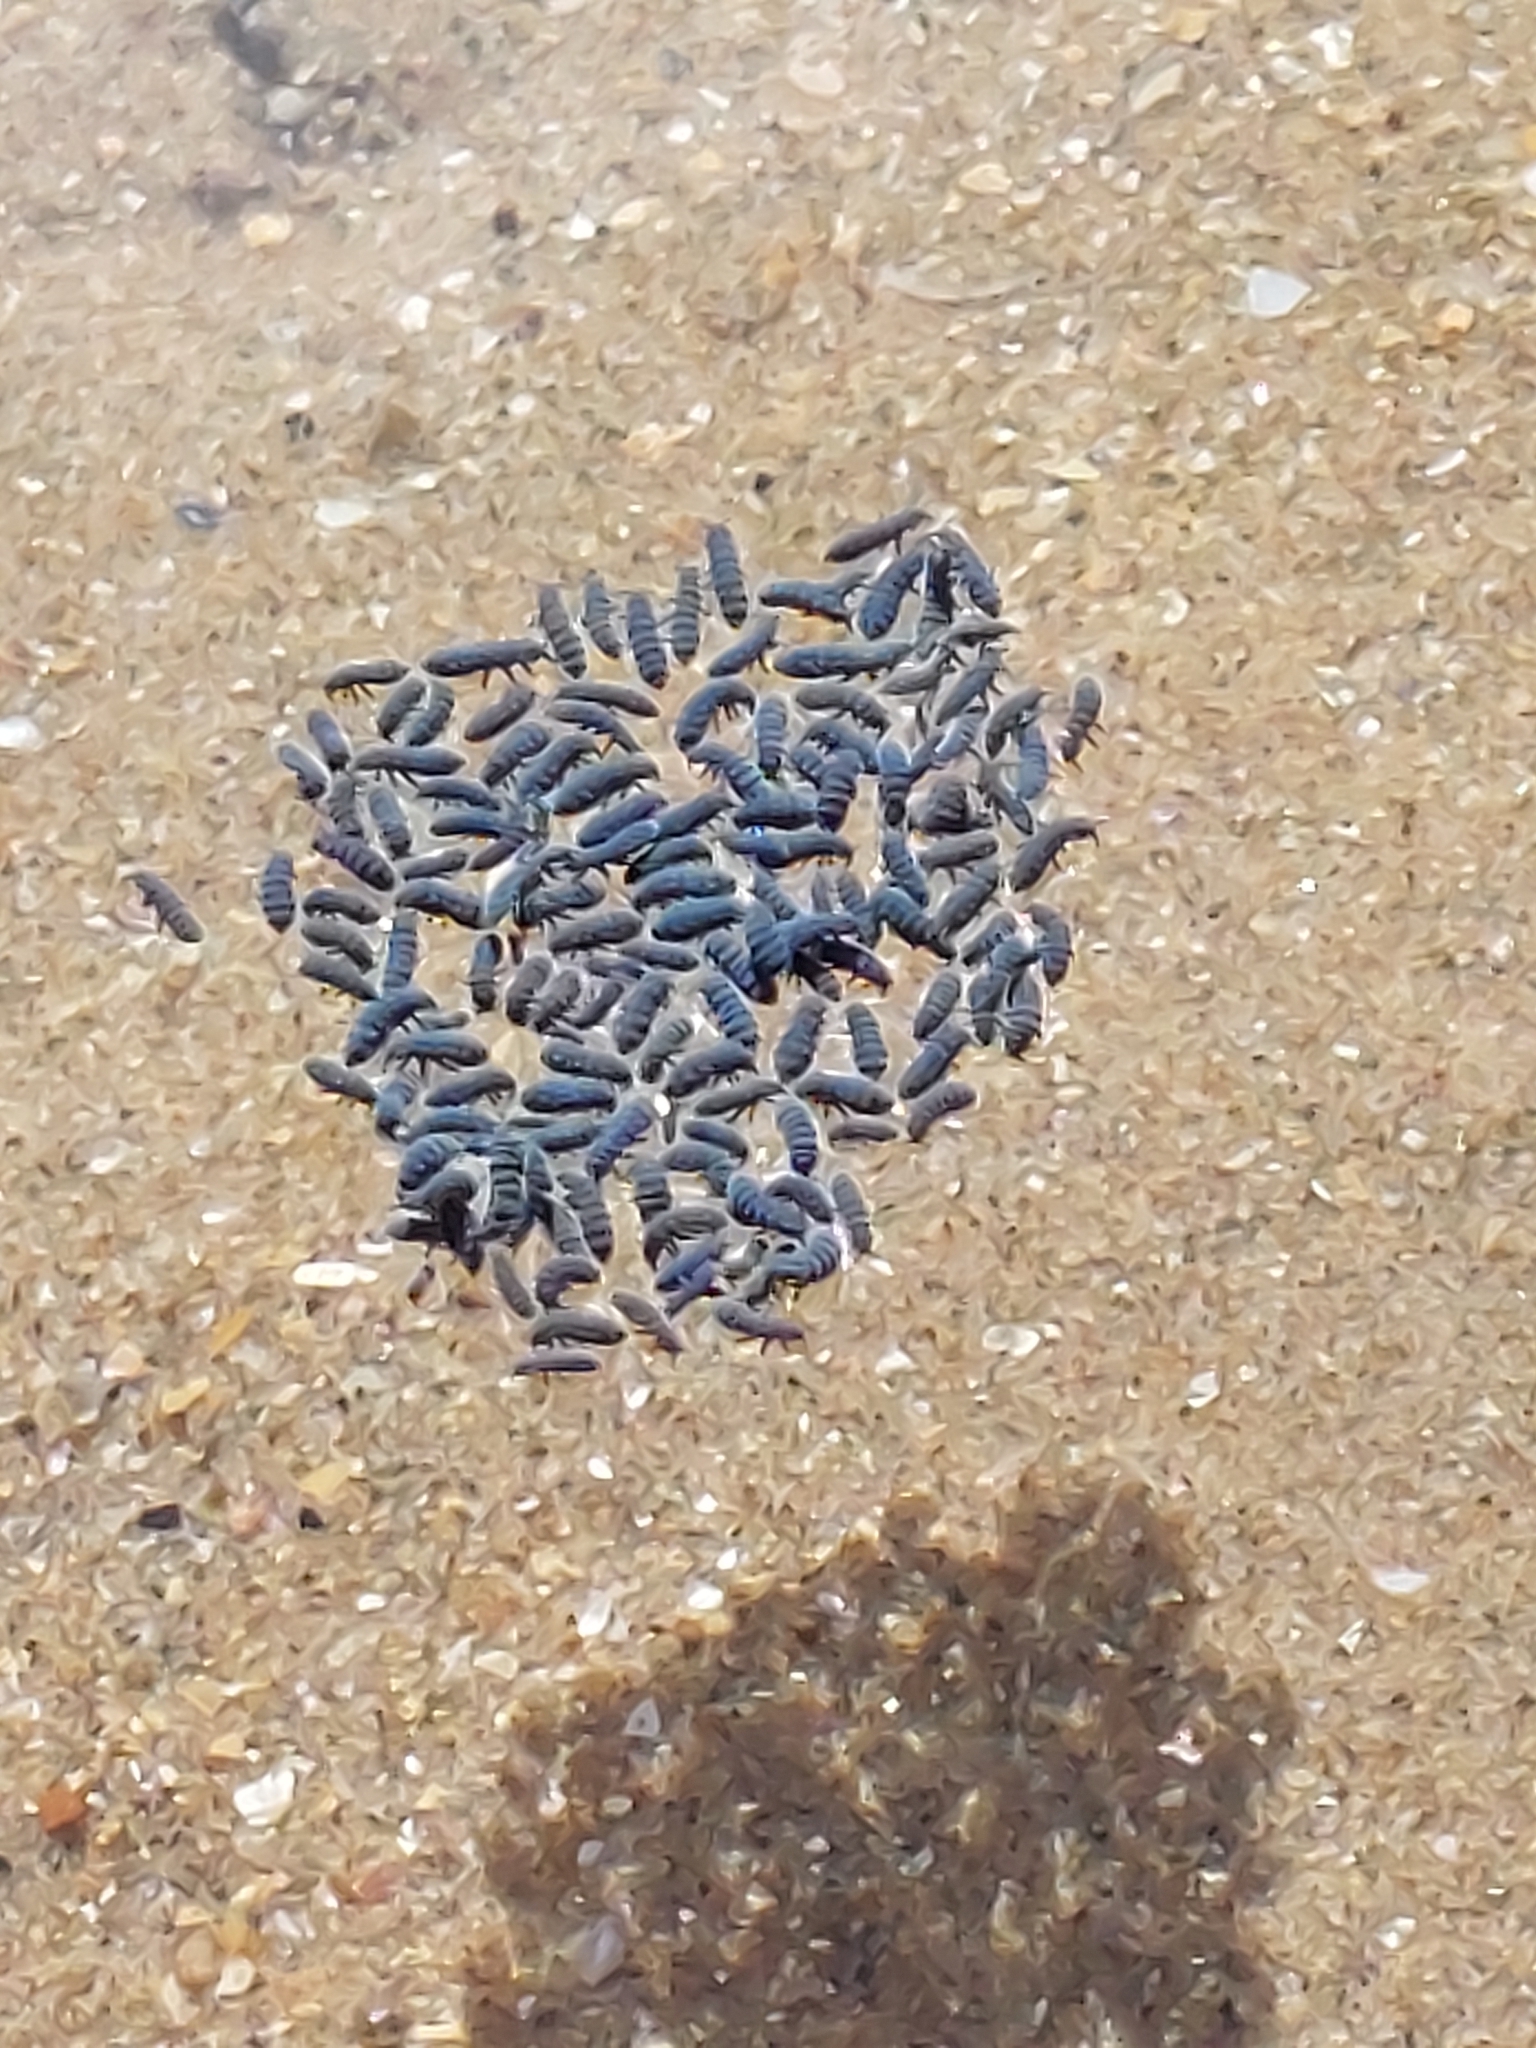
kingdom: Animalia
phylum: Arthropoda
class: Collembola
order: Poduromorpha
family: Neanuridae
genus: Anurida
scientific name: Anurida maritima
